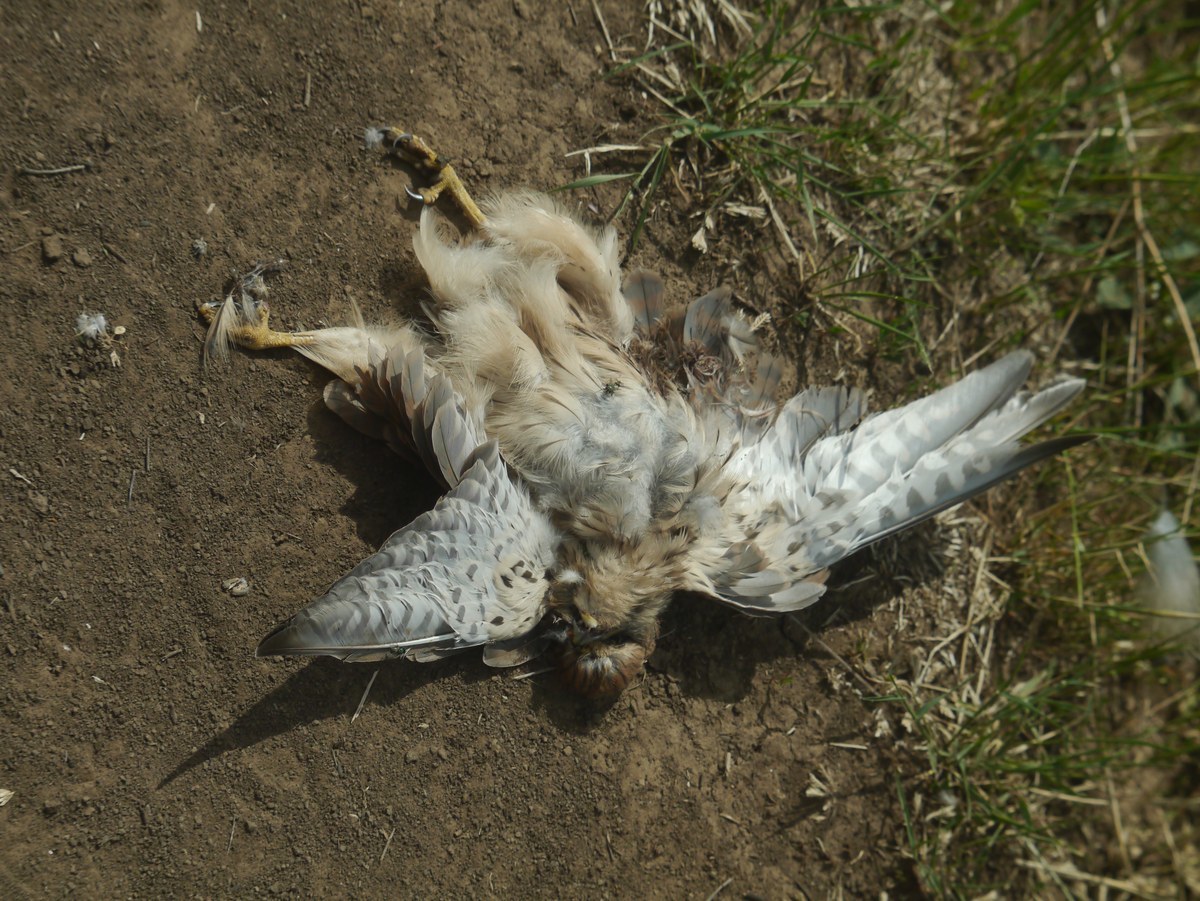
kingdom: Animalia
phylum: Chordata
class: Aves
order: Falconiformes
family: Falconidae
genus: Falco
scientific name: Falco tinnunculus
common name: Common kestrel
